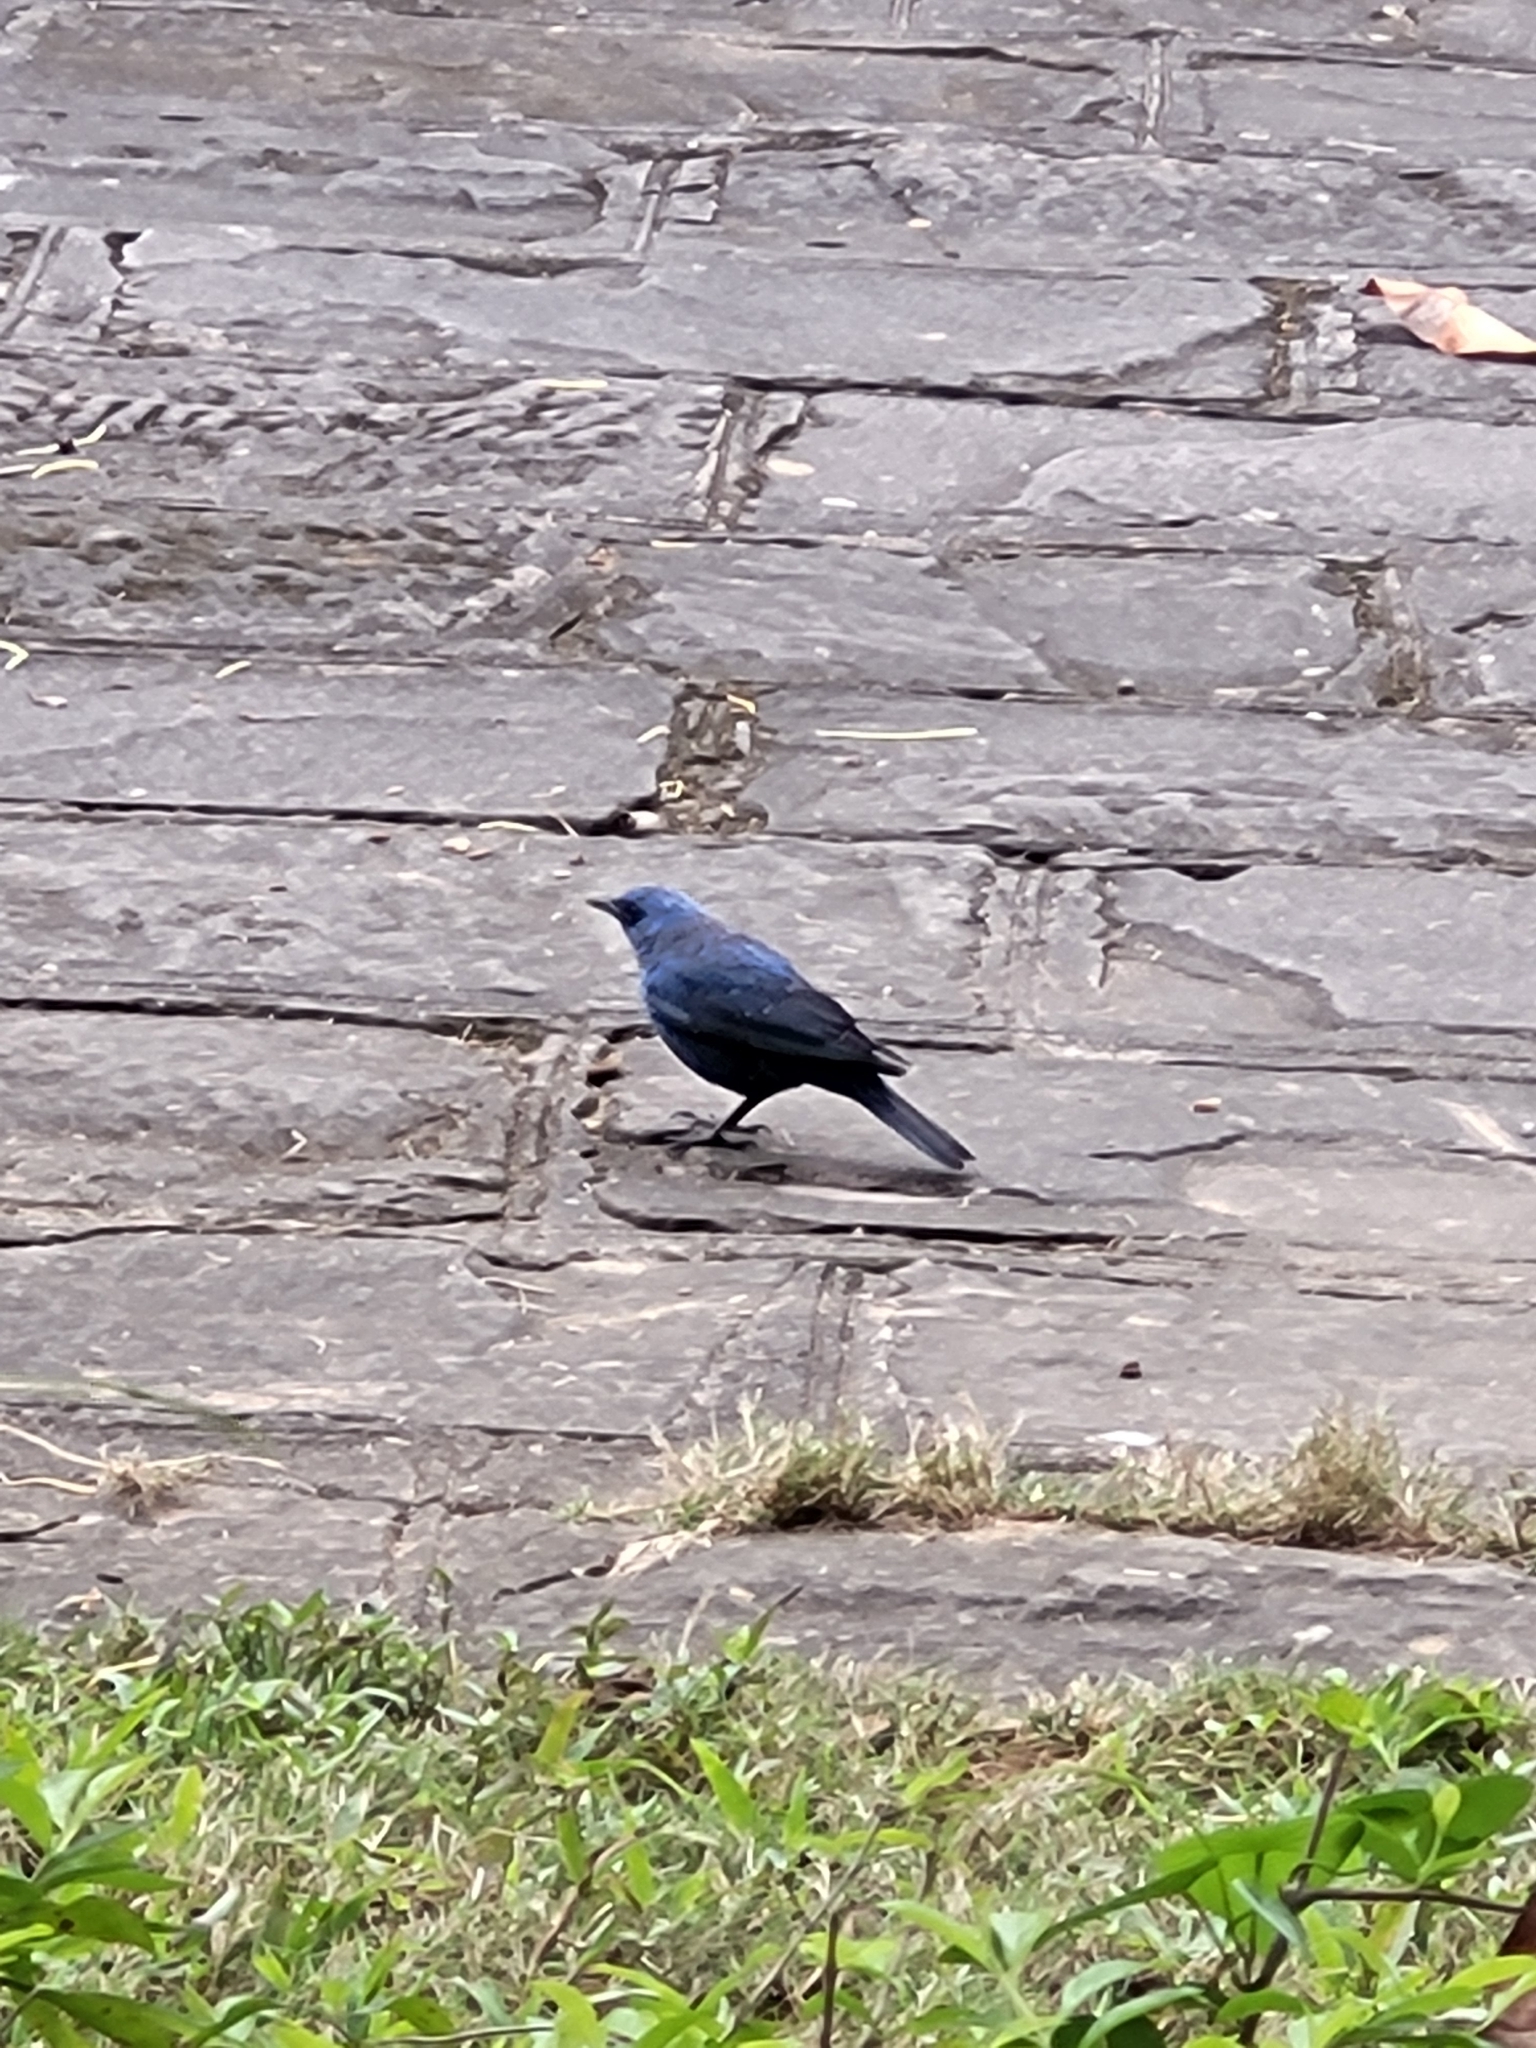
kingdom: Animalia
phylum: Chordata
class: Aves
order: Passeriformes
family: Muscicapidae
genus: Monticola
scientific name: Monticola solitarius
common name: Blue rock thrush
